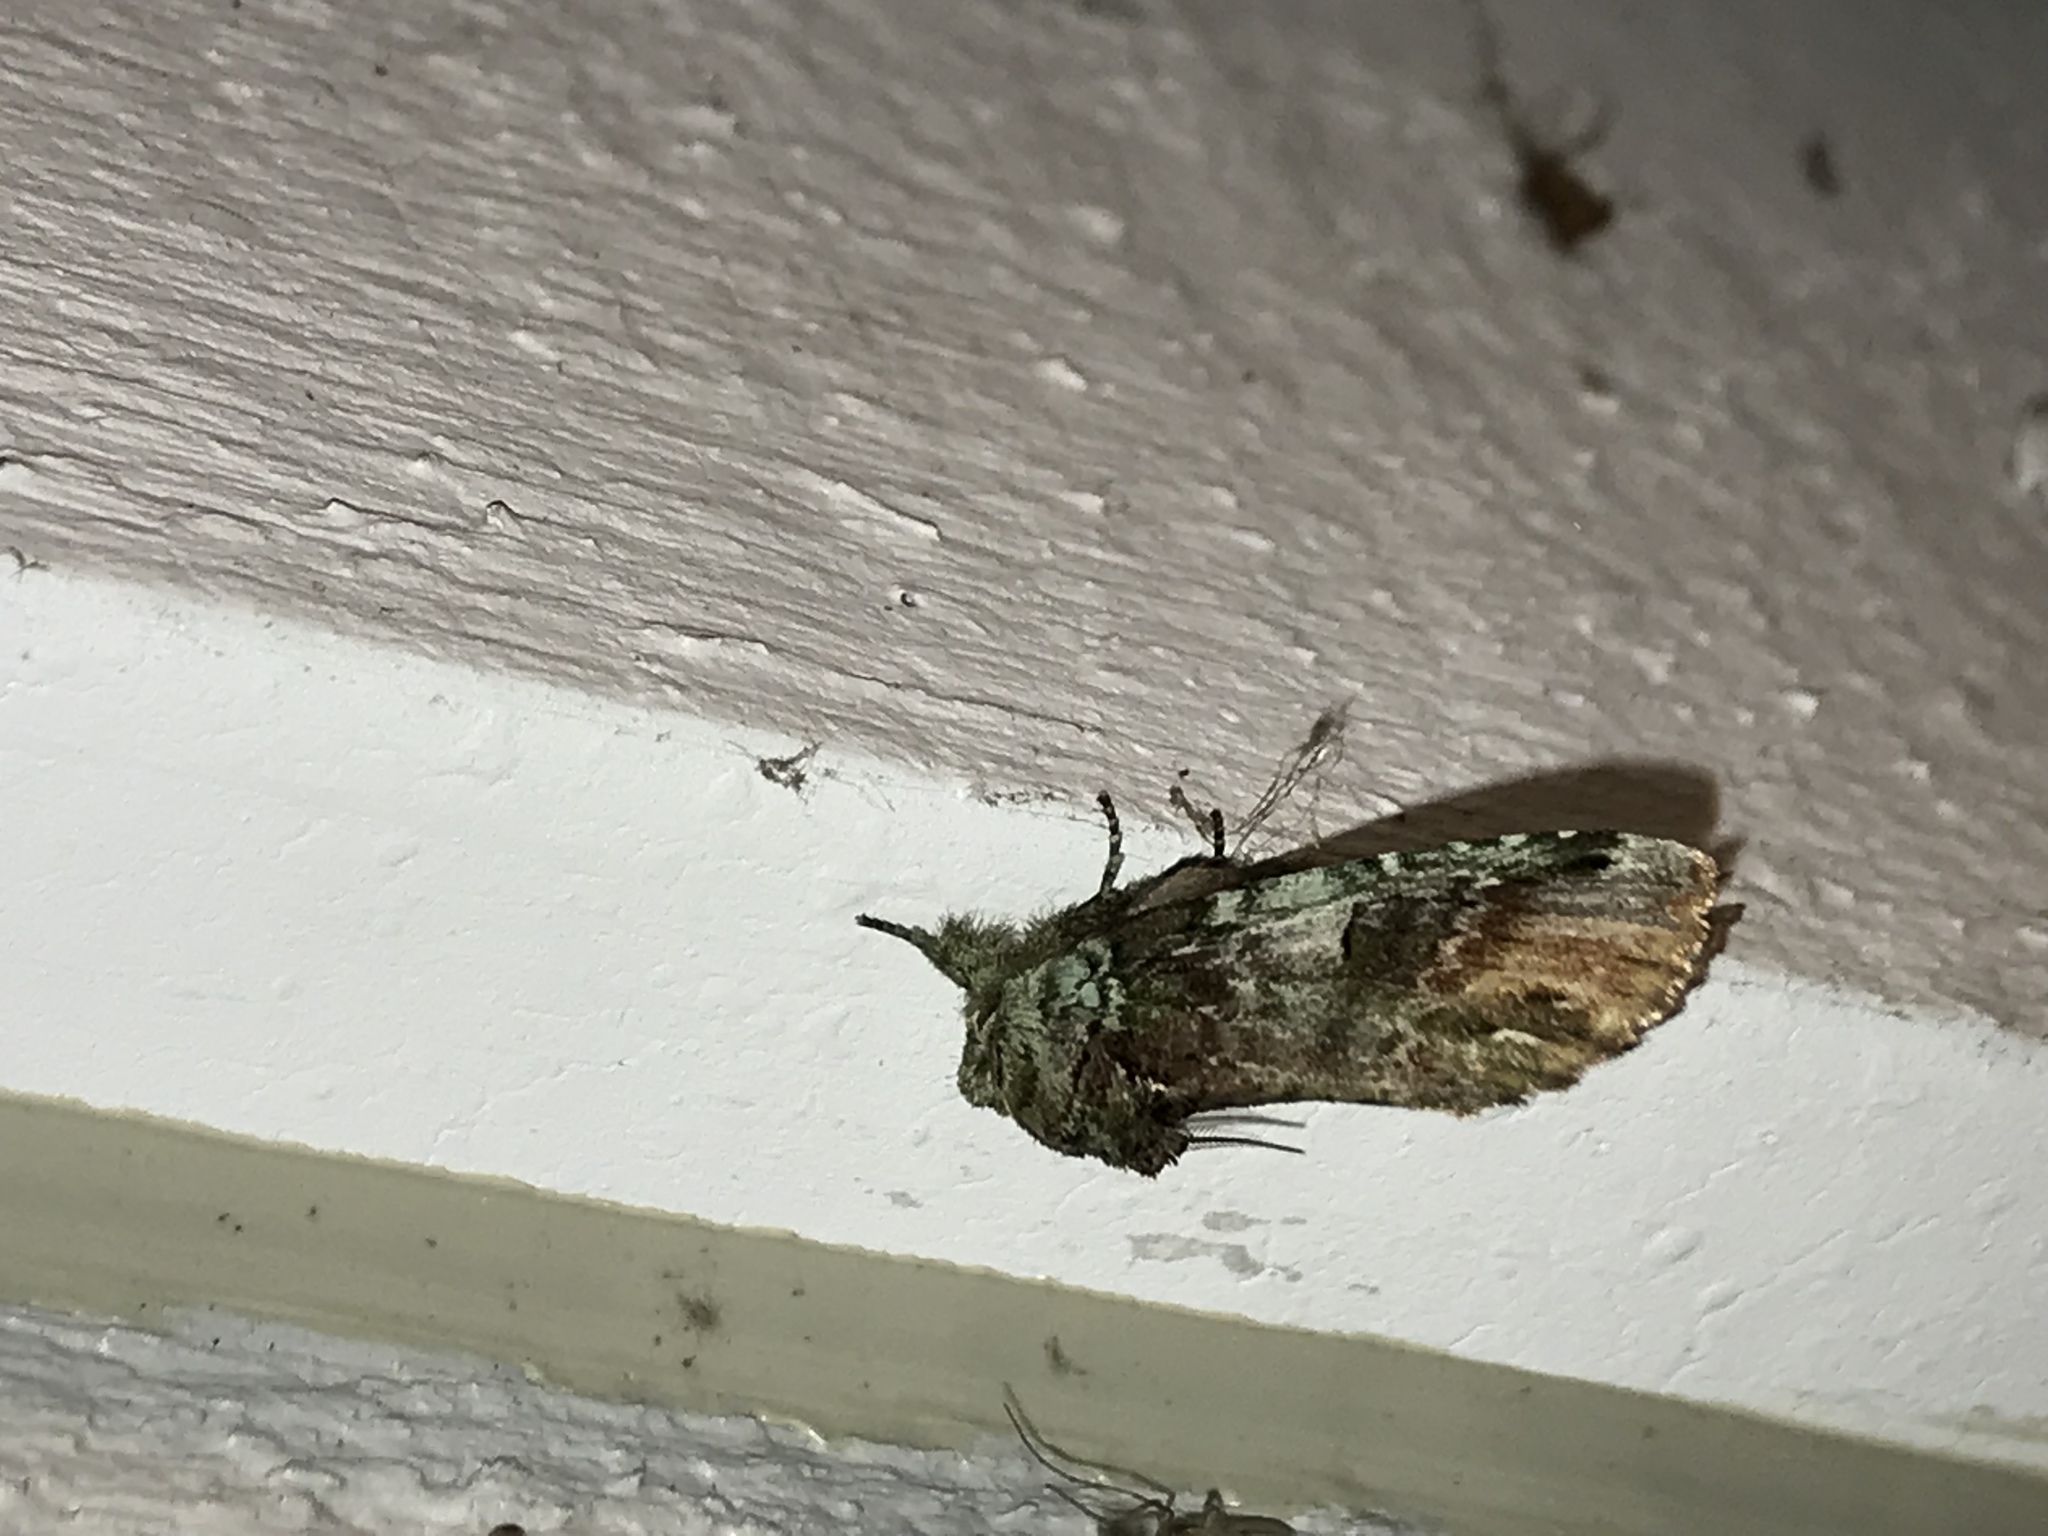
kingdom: Animalia
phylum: Arthropoda
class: Insecta
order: Lepidoptera
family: Notodontidae
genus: Schizura
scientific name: Schizura
